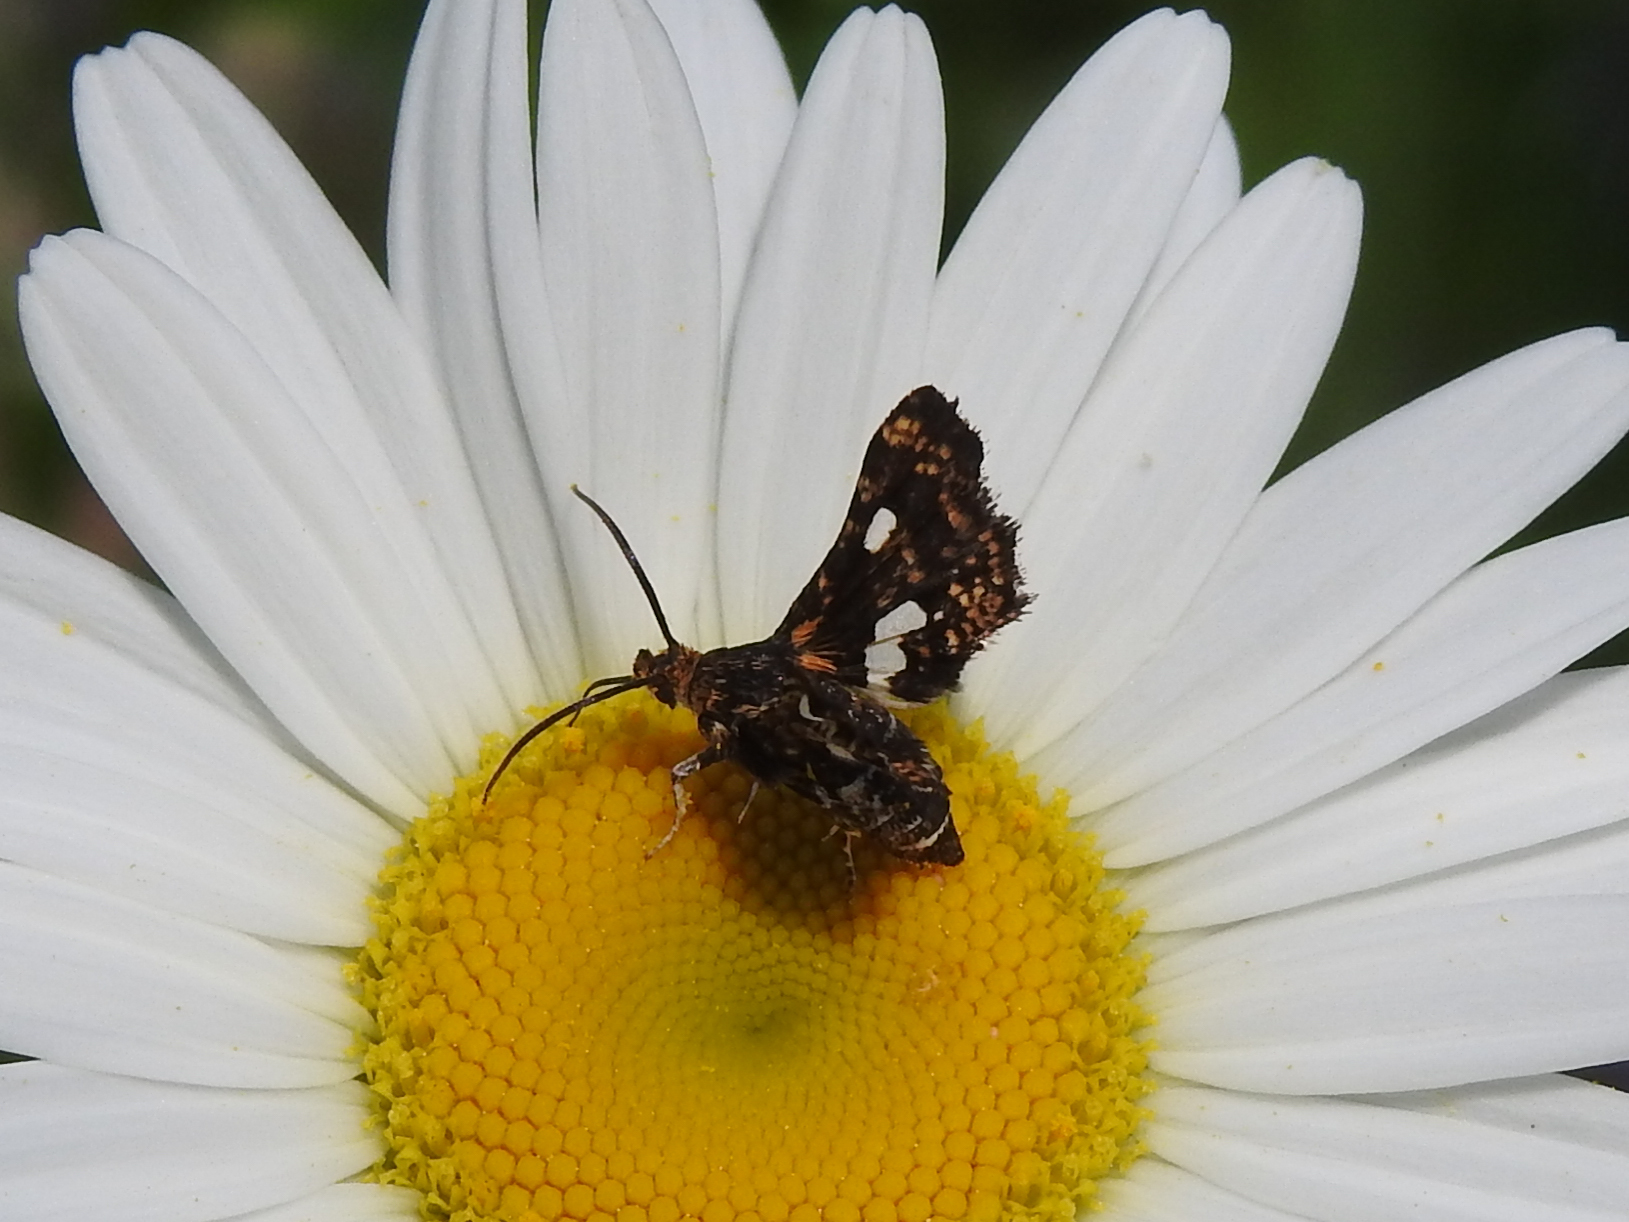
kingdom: Animalia
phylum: Arthropoda
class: Insecta
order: Lepidoptera
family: Thyrididae
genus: Thyris
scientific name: Thyris maculata
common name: Spotted thyris moth
